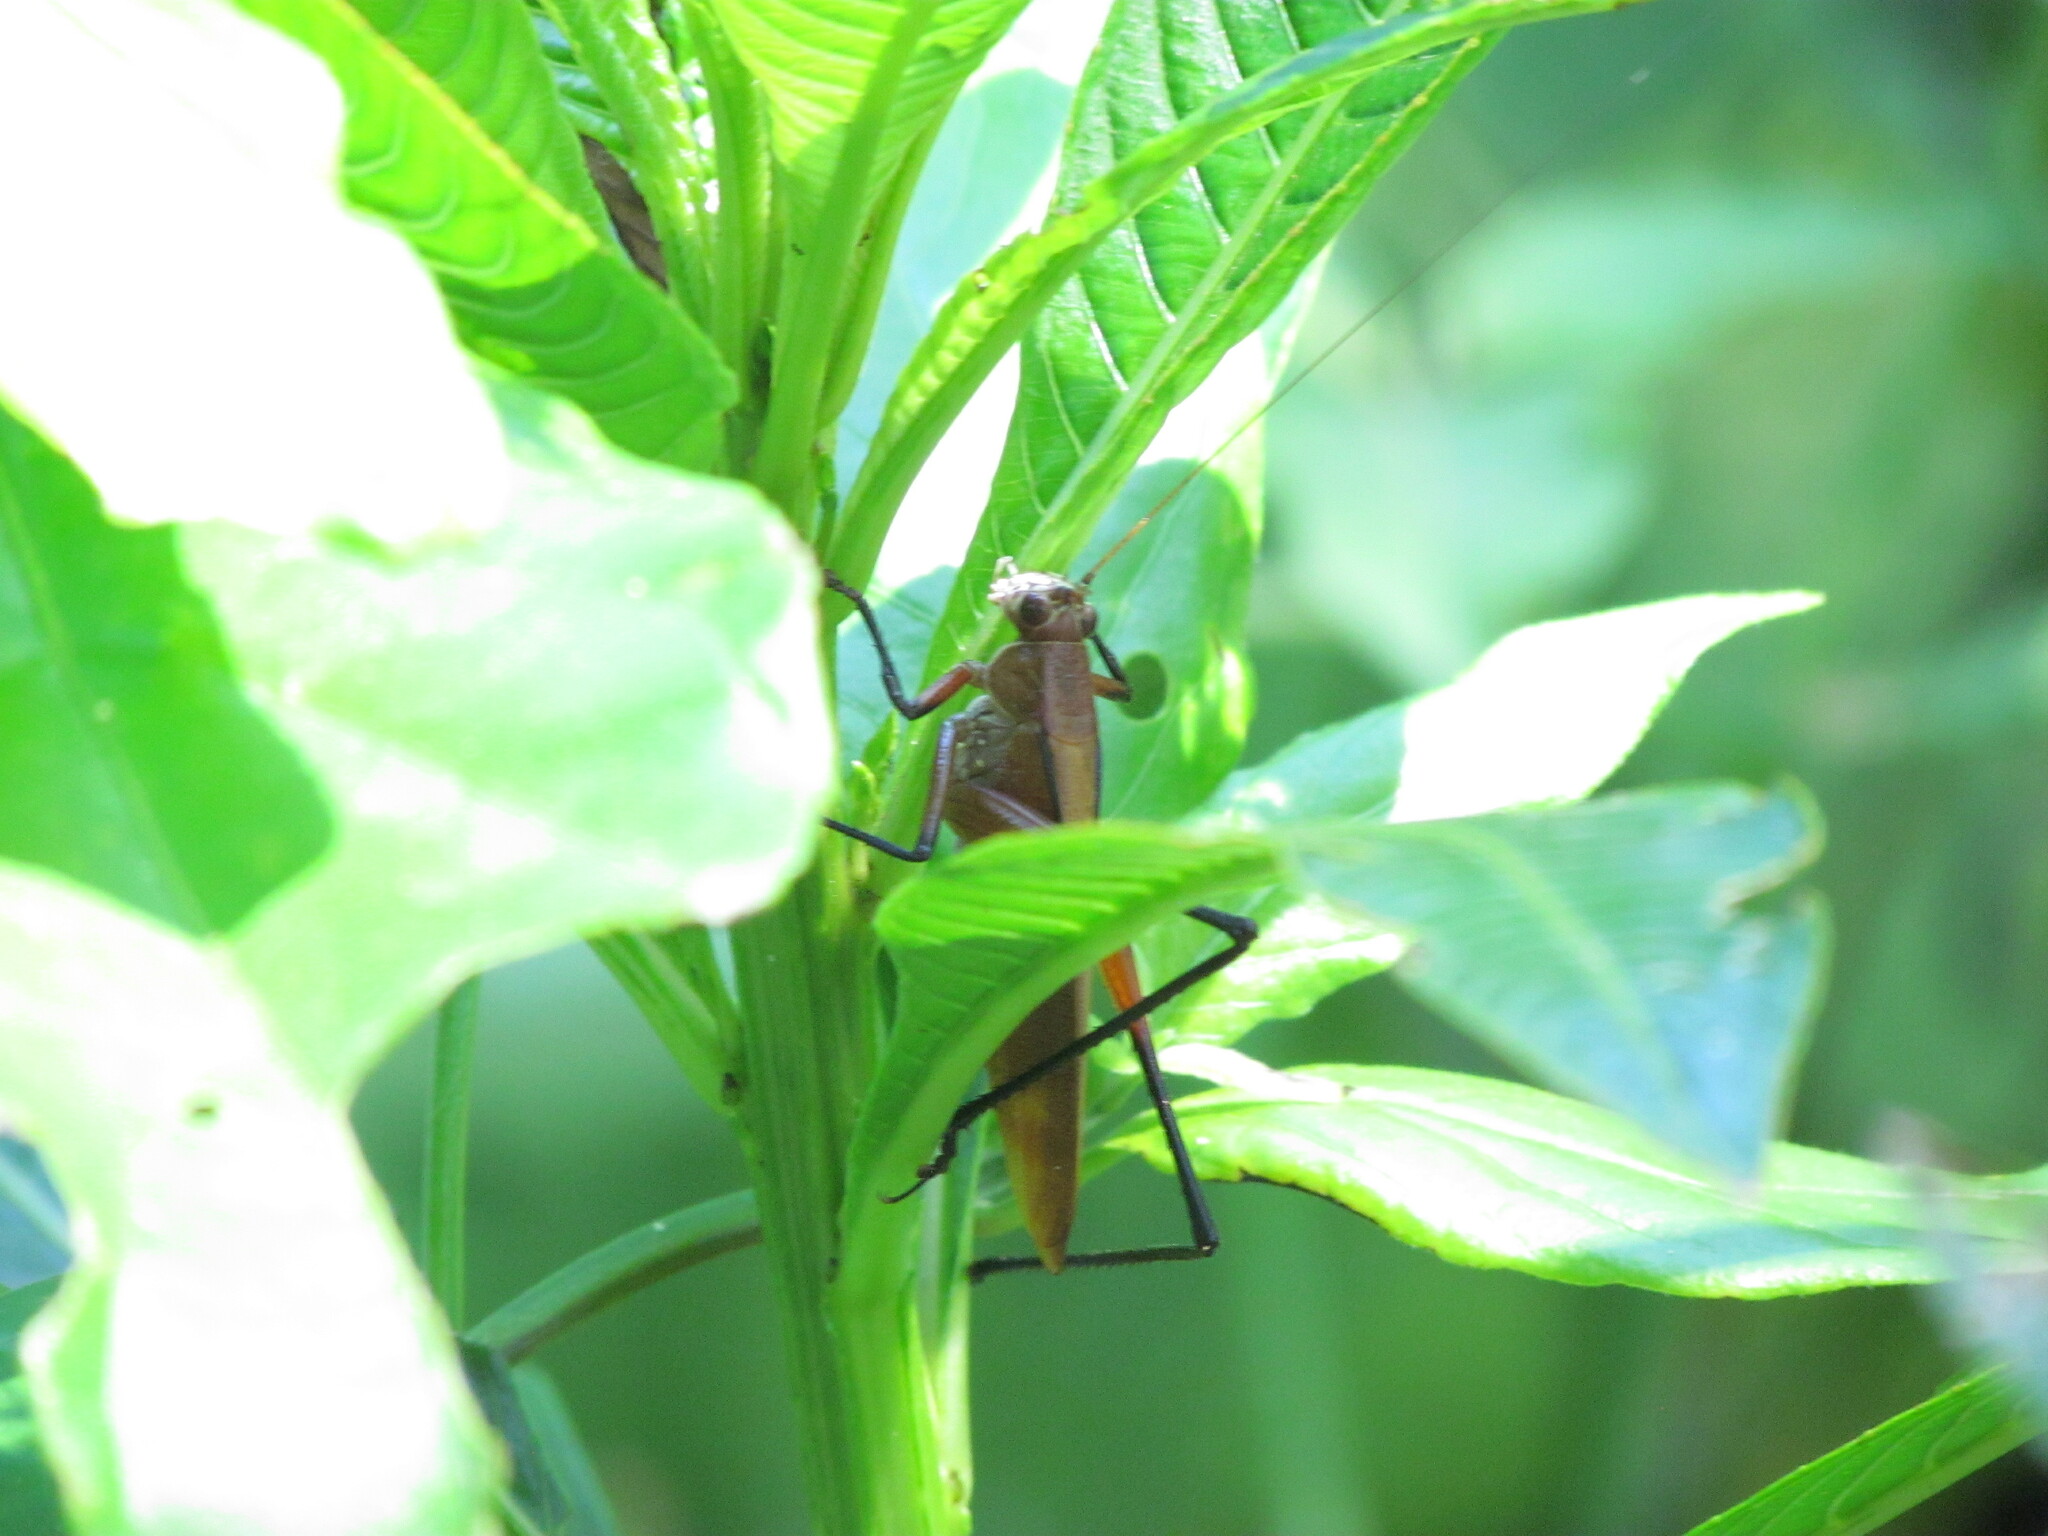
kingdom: Animalia
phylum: Arthropoda
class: Insecta
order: Orthoptera
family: Tettigoniidae
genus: Theudoria
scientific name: Theudoria melanocnemis
